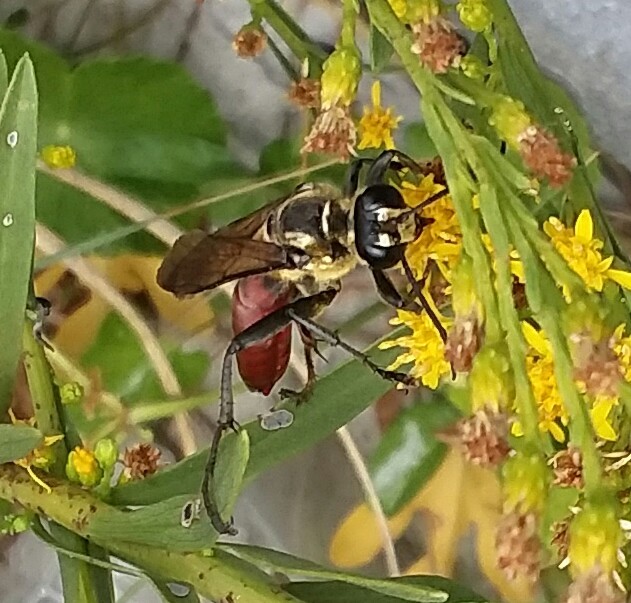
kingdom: Animalia
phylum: Arthropoda
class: Insecta
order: Hymenoptera
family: Sphecidae
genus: Sphex
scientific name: Sphex habenus
